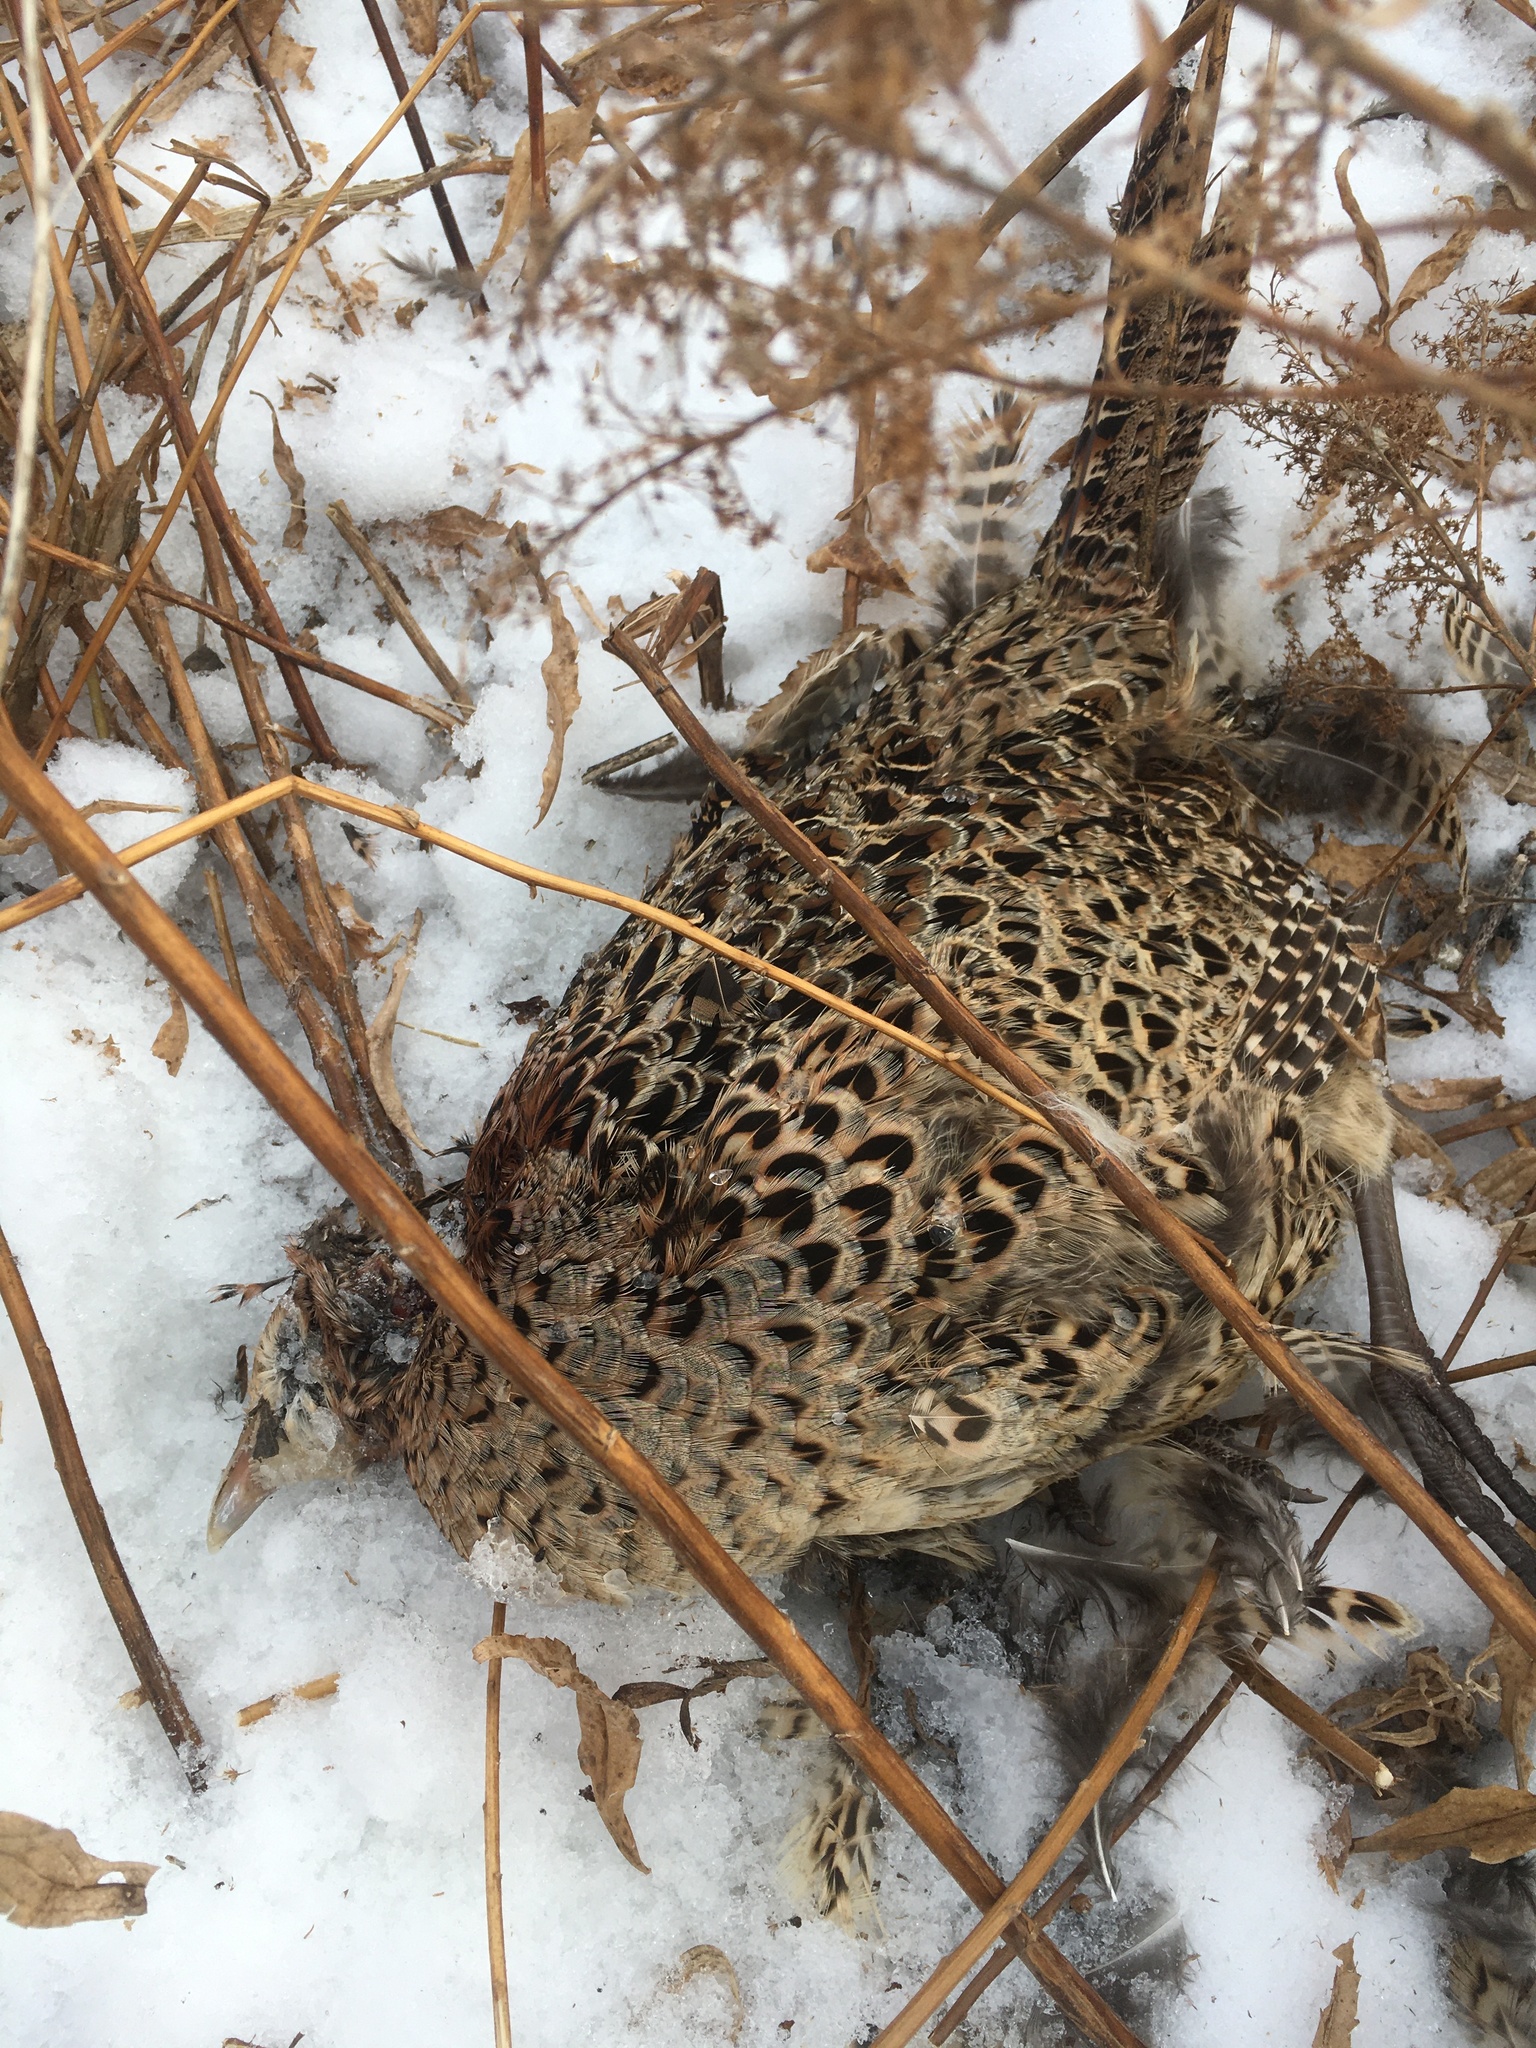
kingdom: Animalia
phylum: Chordata
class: Aves
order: Galliformes
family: Phasianidae
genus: Phasianus
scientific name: Phasianus colchicus
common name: Common pheasant
